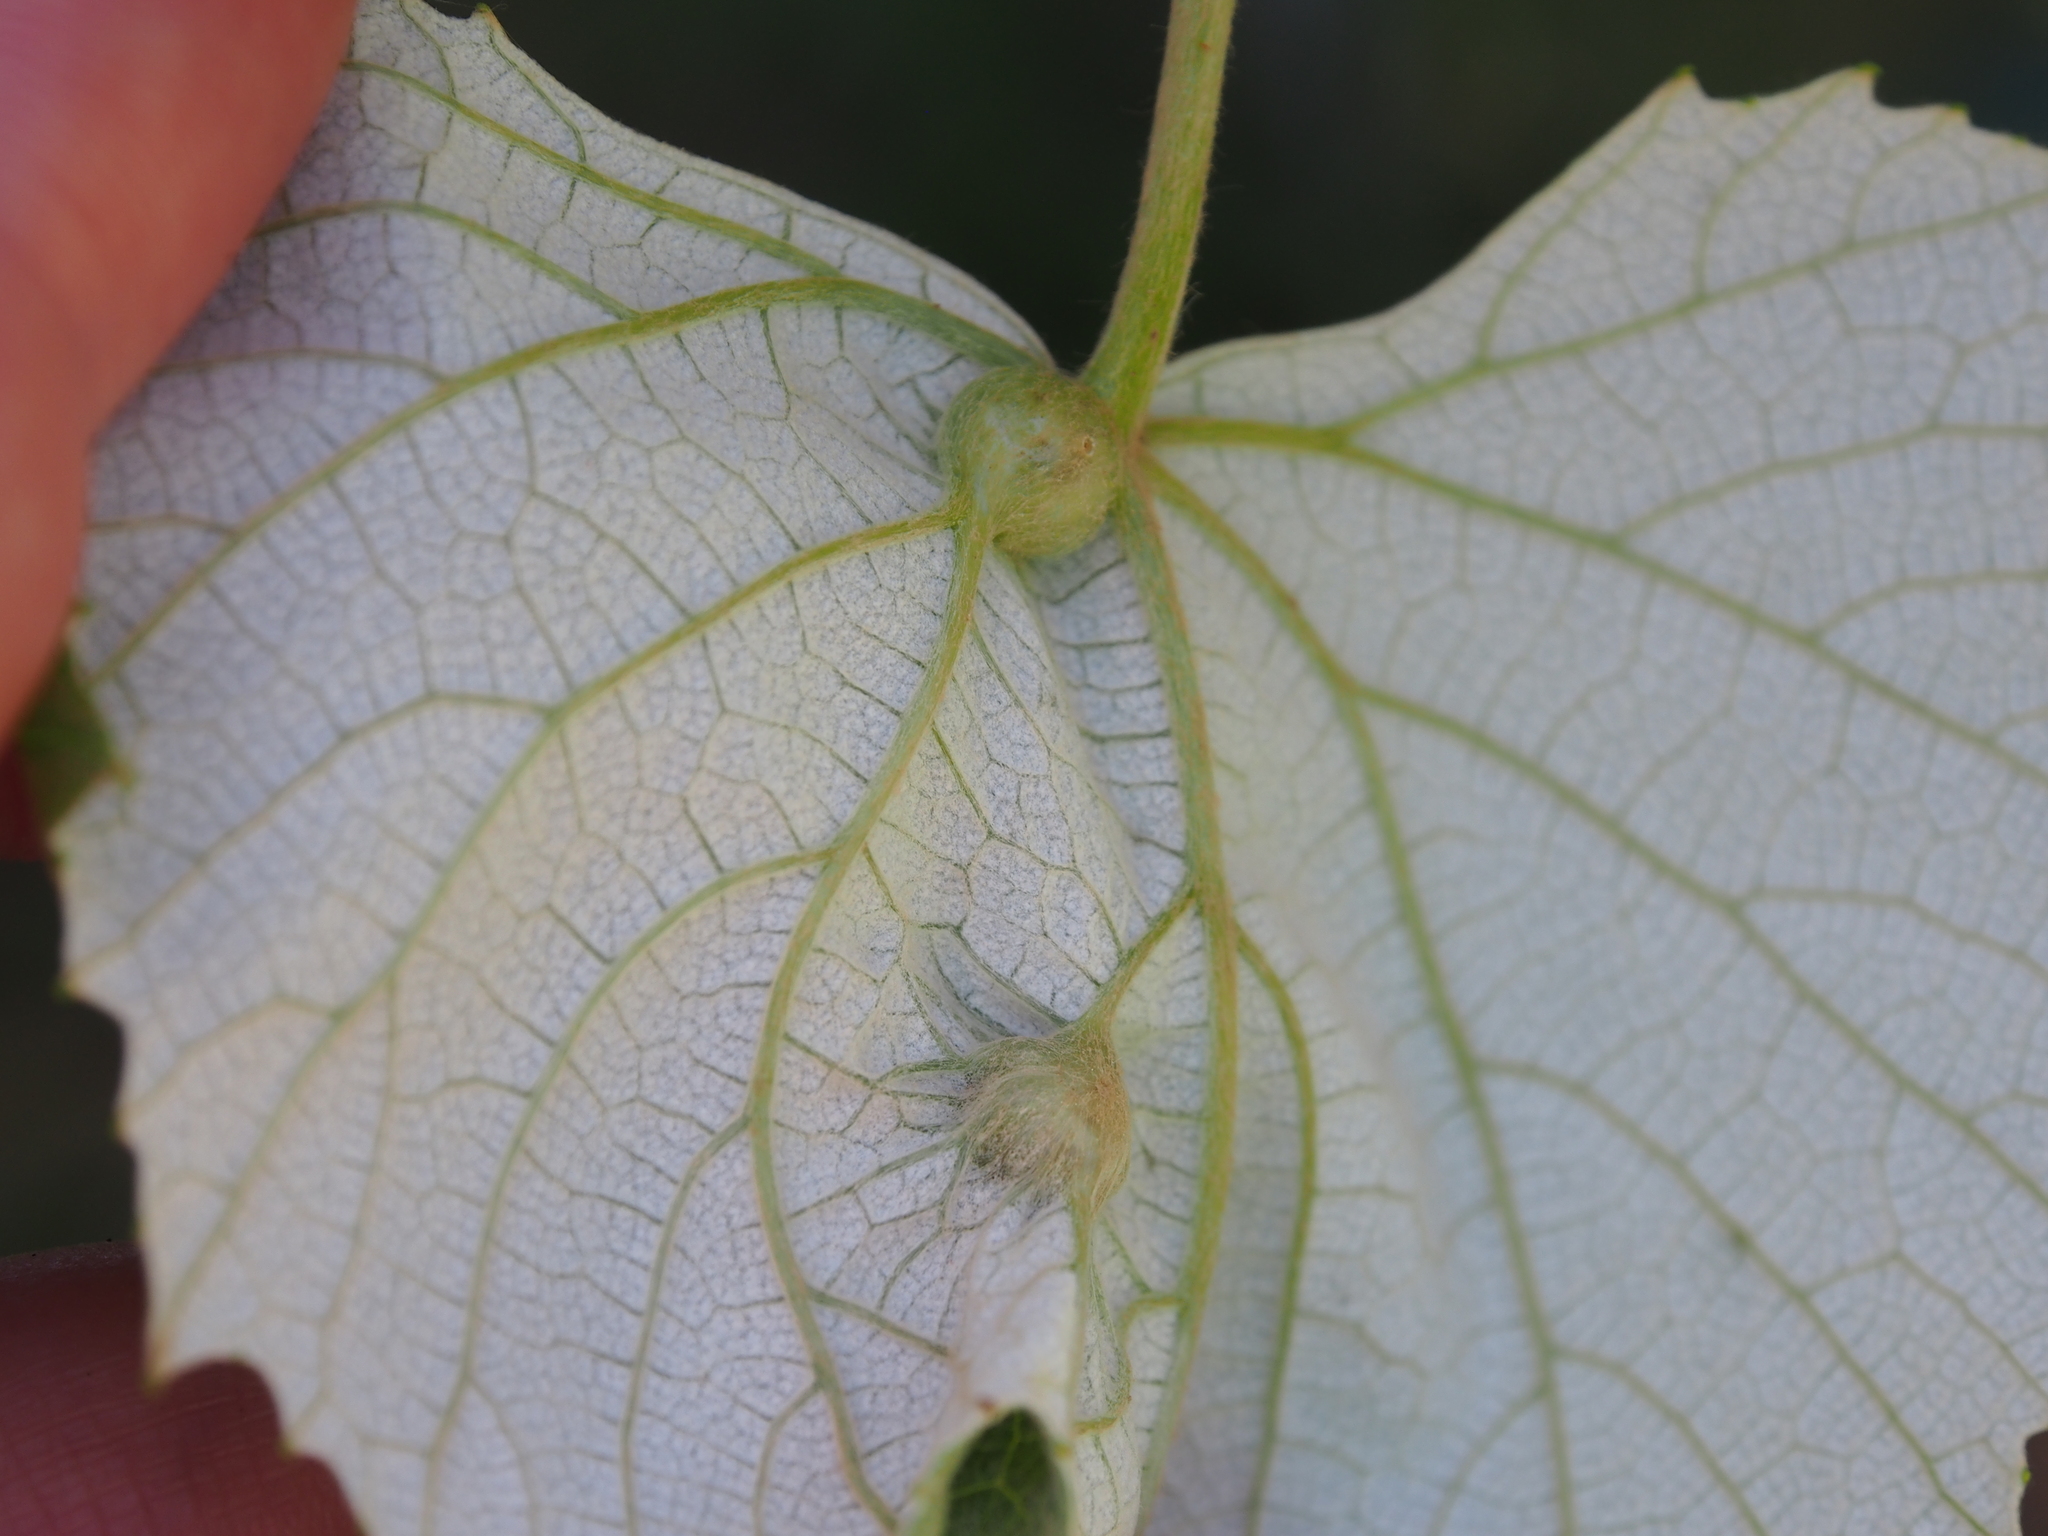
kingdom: Animalia
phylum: Arthropoda
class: Insecta
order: Diptera
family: Cecidomyiidae
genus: Vitisiella
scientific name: Vitisiella brevicauda
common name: Grape tumid gallmaker midge
